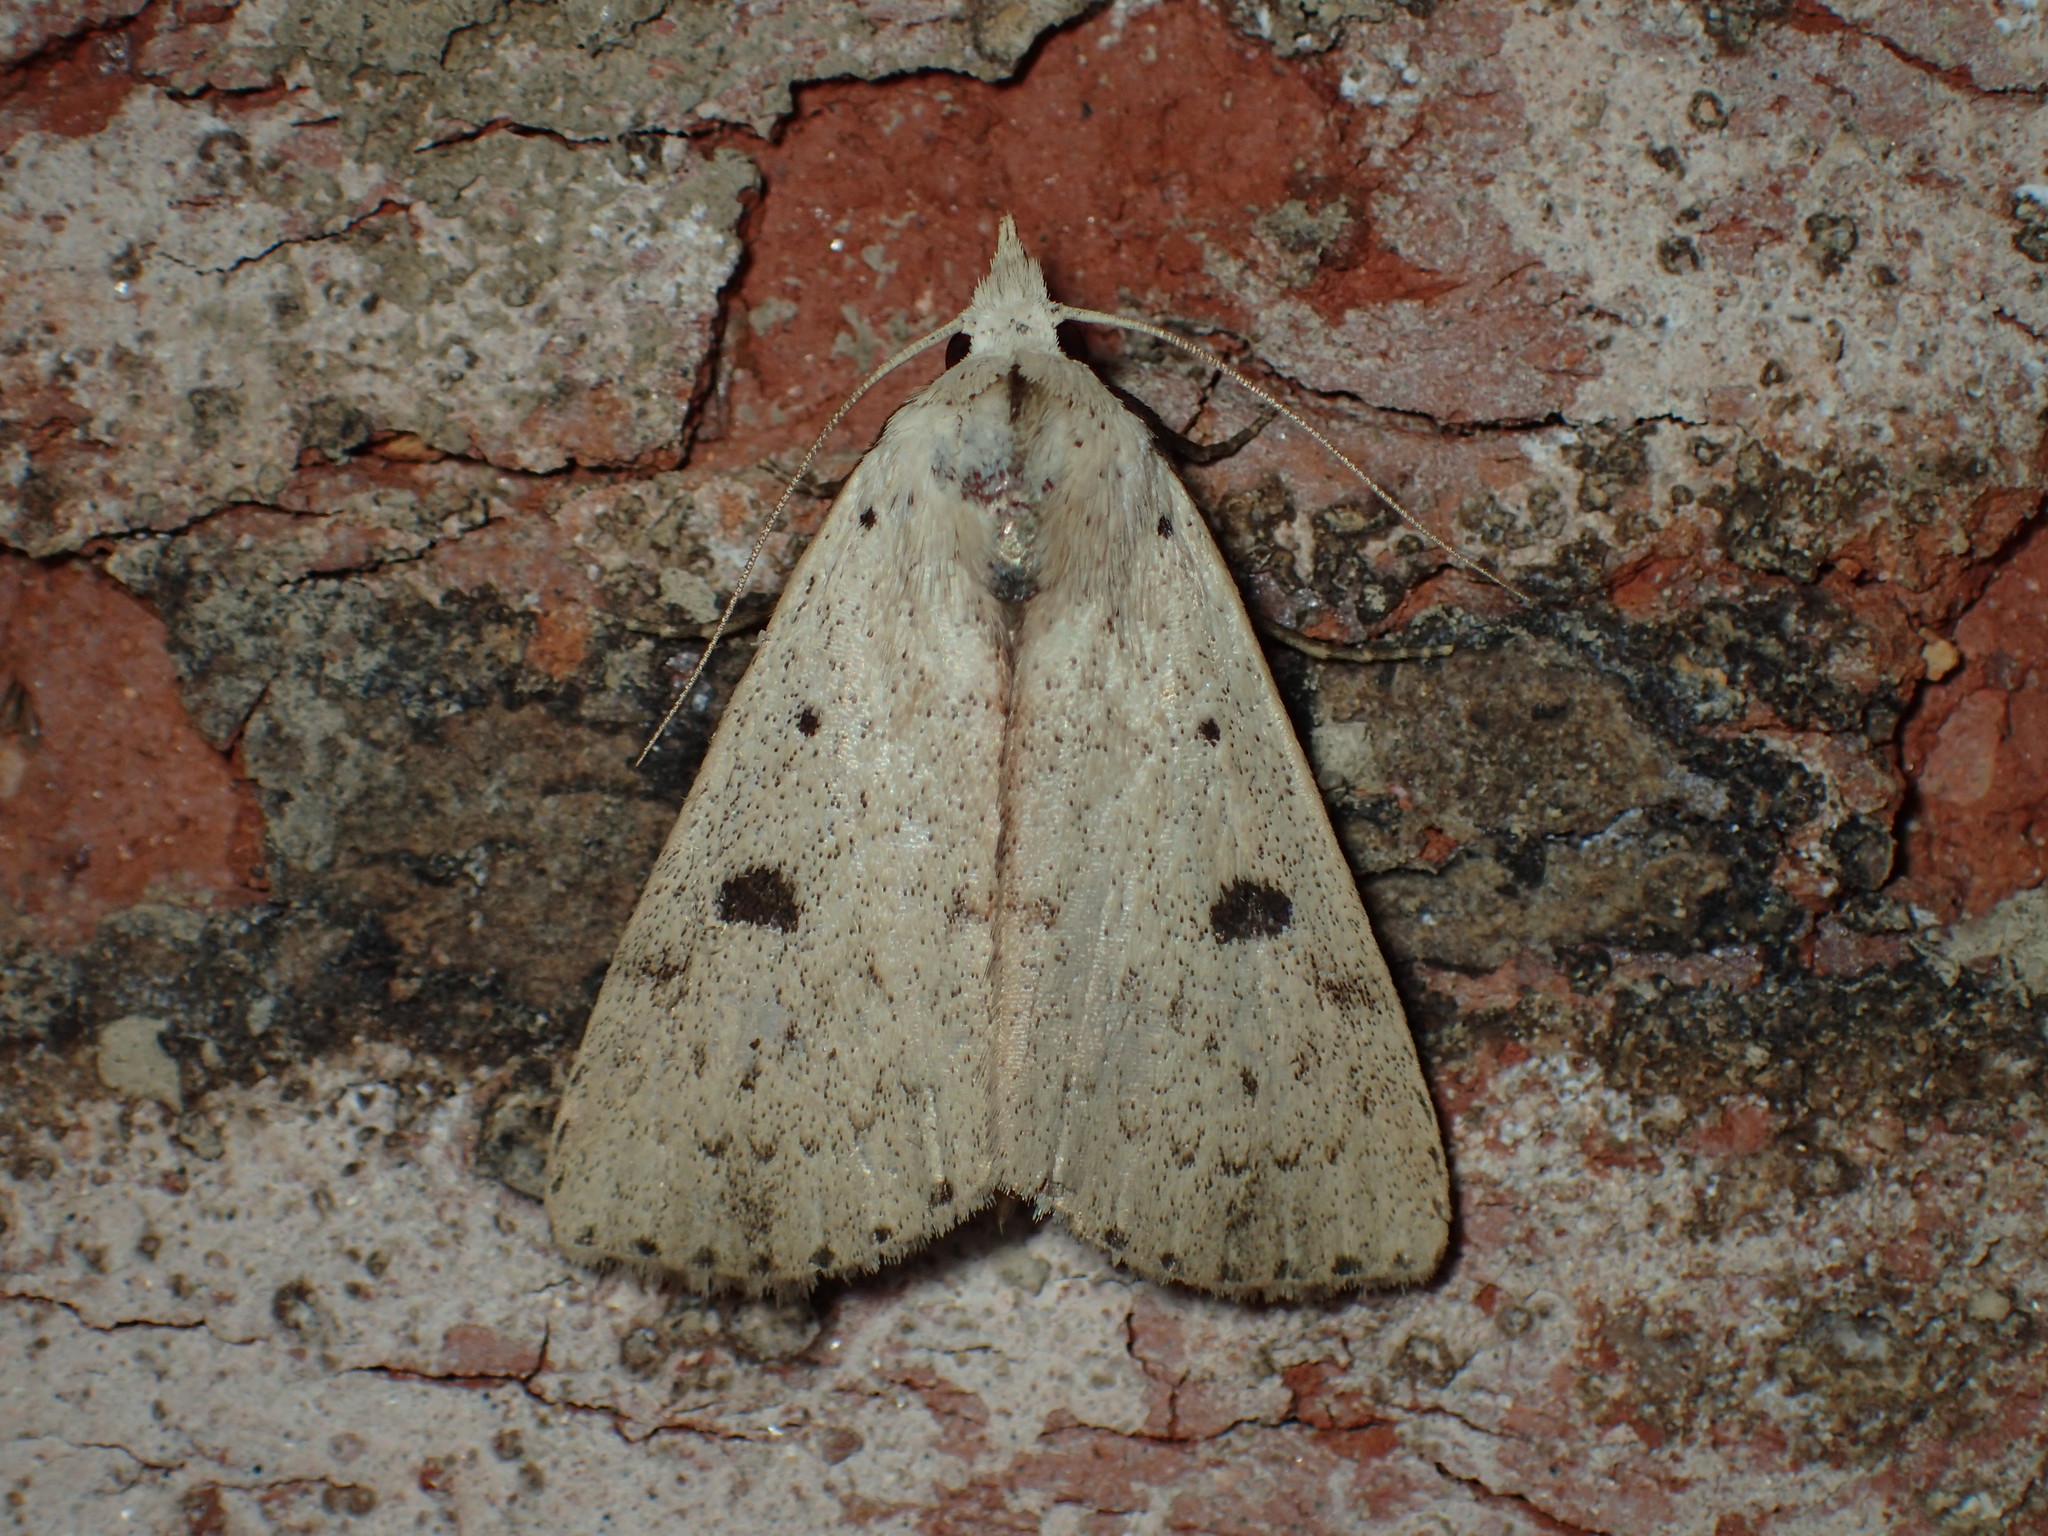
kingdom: Animalia
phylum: Arthropoda
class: Insecta
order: Lepidoptera
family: Erebidae
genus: Scolecocampa
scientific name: Scolecocampa liburna
